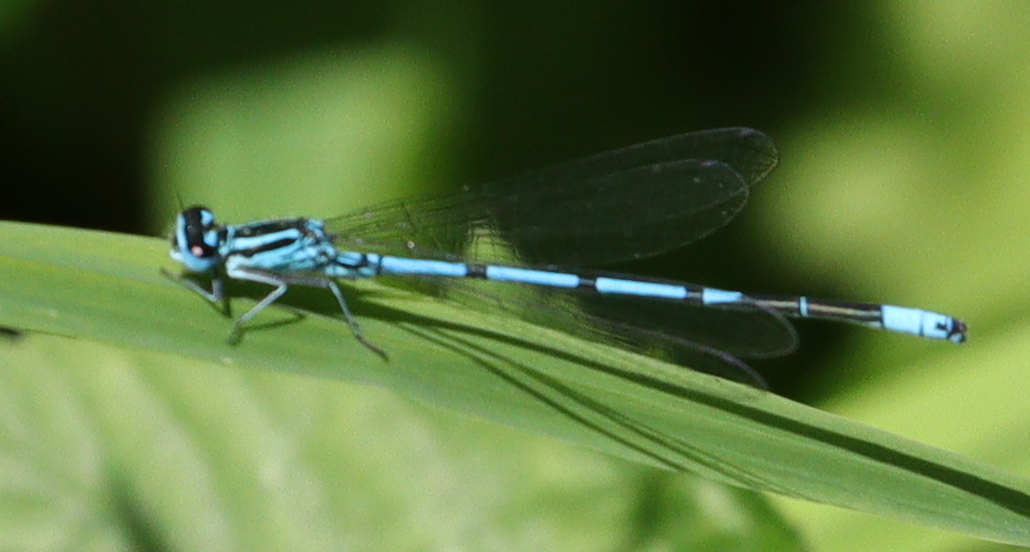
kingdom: Animalia
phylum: Arthropoda
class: Insecta
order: Odonata
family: Coenagrionidae
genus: Coenagrion
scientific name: Coenagrion puella
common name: Azure damselfly
